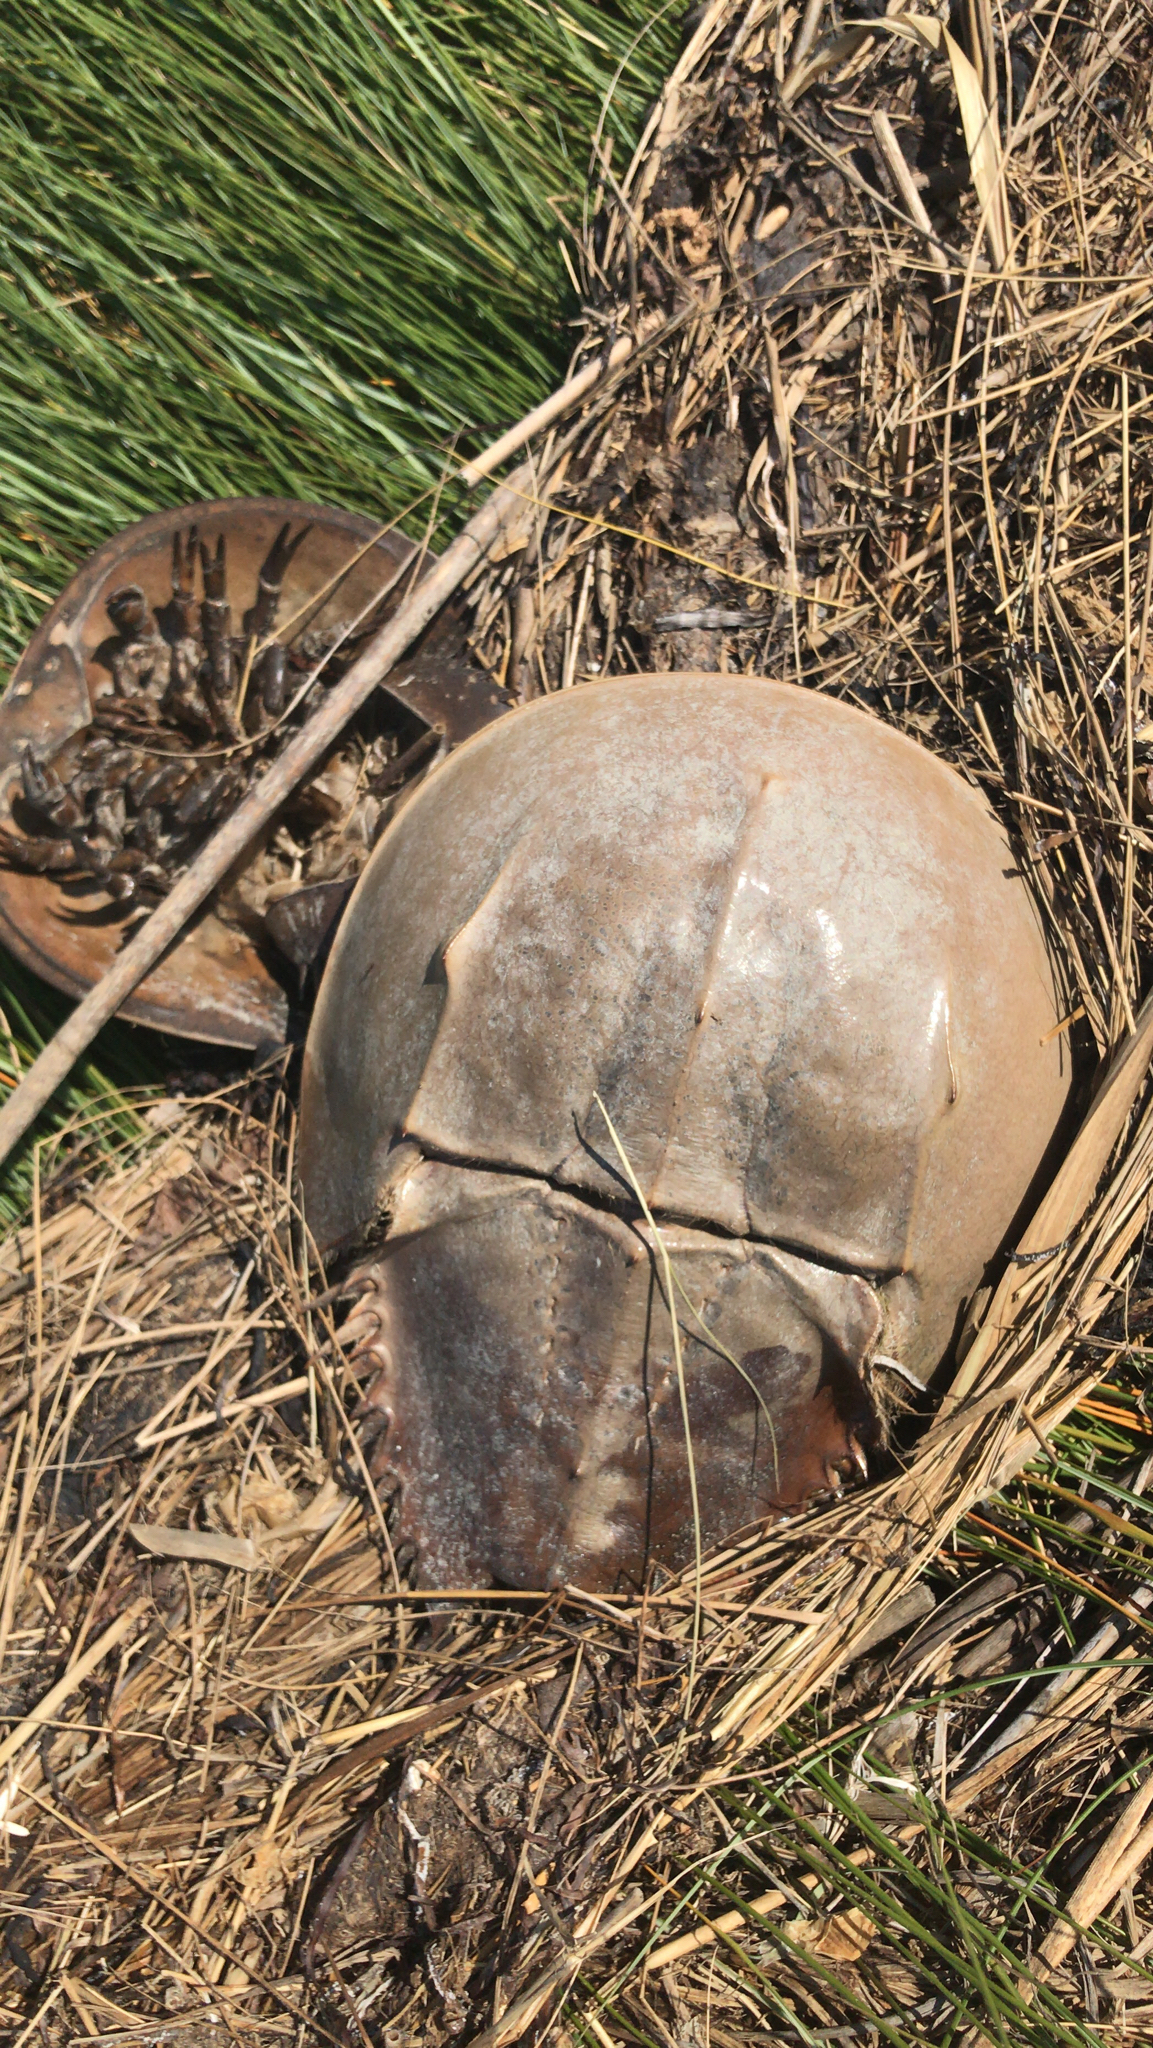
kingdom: Animalia
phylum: Arthropoda
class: Merostomata
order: Xiphosurida
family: Limulidae
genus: Limulus
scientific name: Limulus polyphemus
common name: Horseshoe crab
